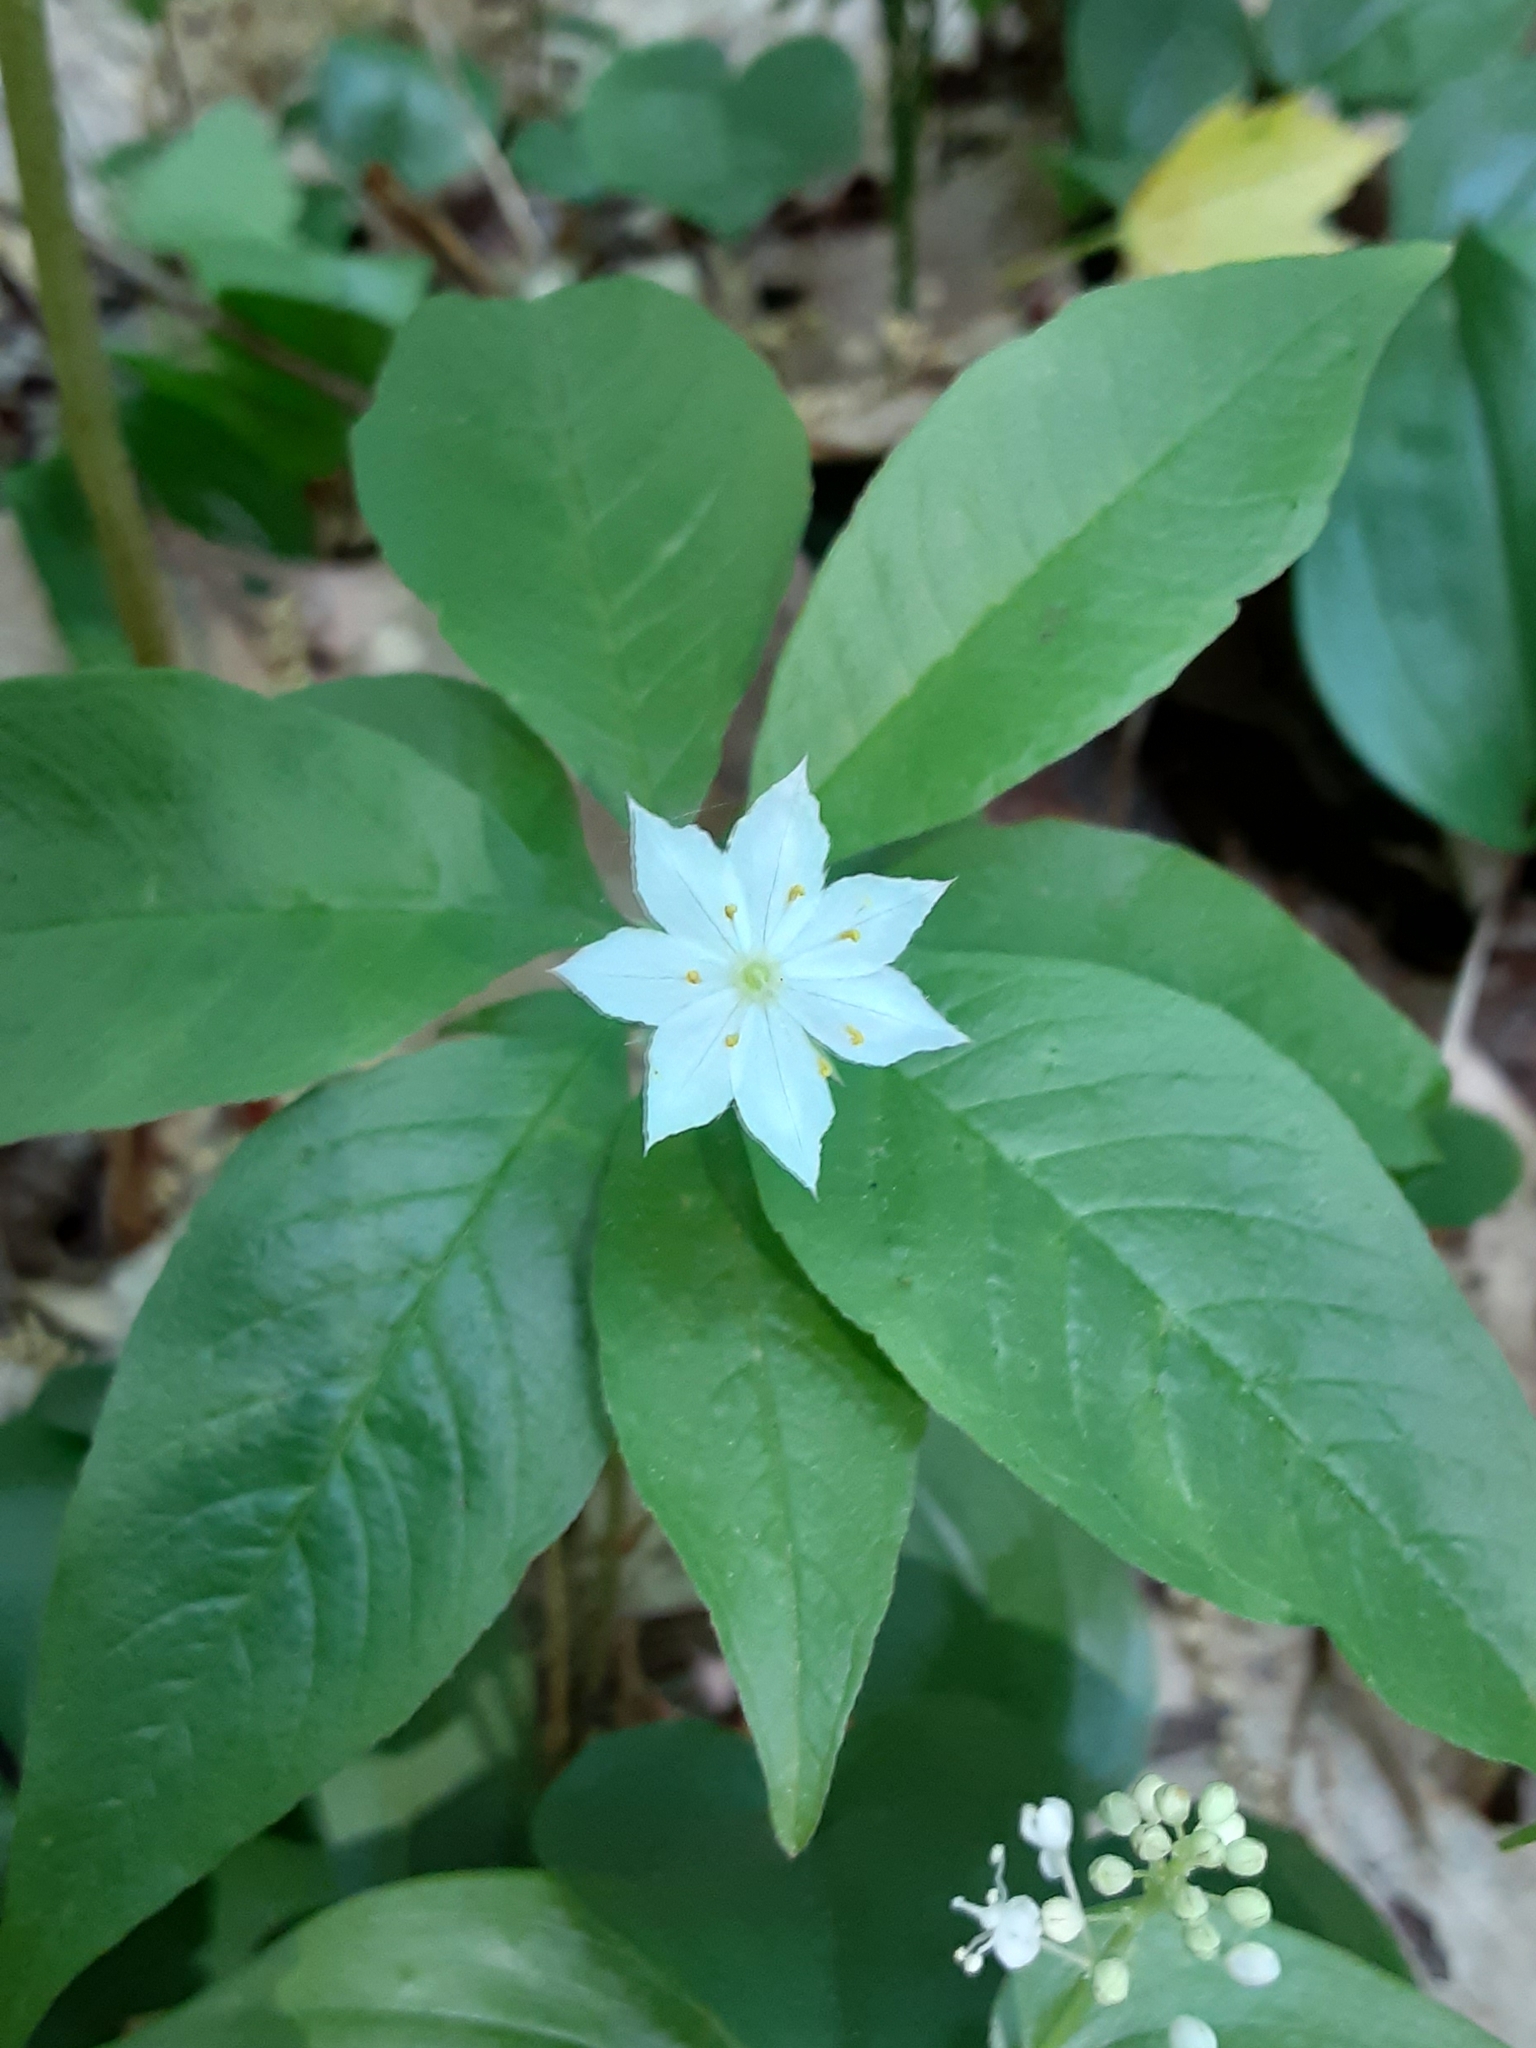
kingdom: Plantae
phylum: Tracheophyta
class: Magnoliopsida
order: Ericales
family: Primulaceae
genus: Lysimachia
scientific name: Lysimachia borealis
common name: American starflower
